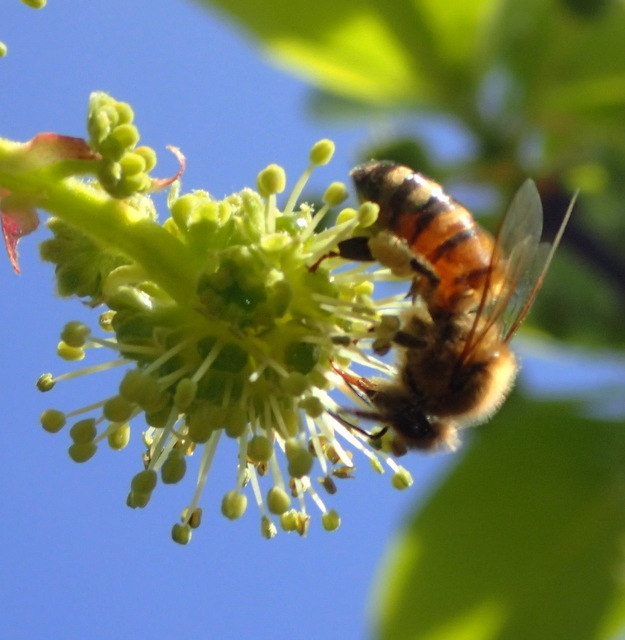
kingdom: Animalia
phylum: Arthropoda
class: Insecta
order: Hymenoptera
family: Apidae
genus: Apis
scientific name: Apis mellifera
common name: Honey bee
